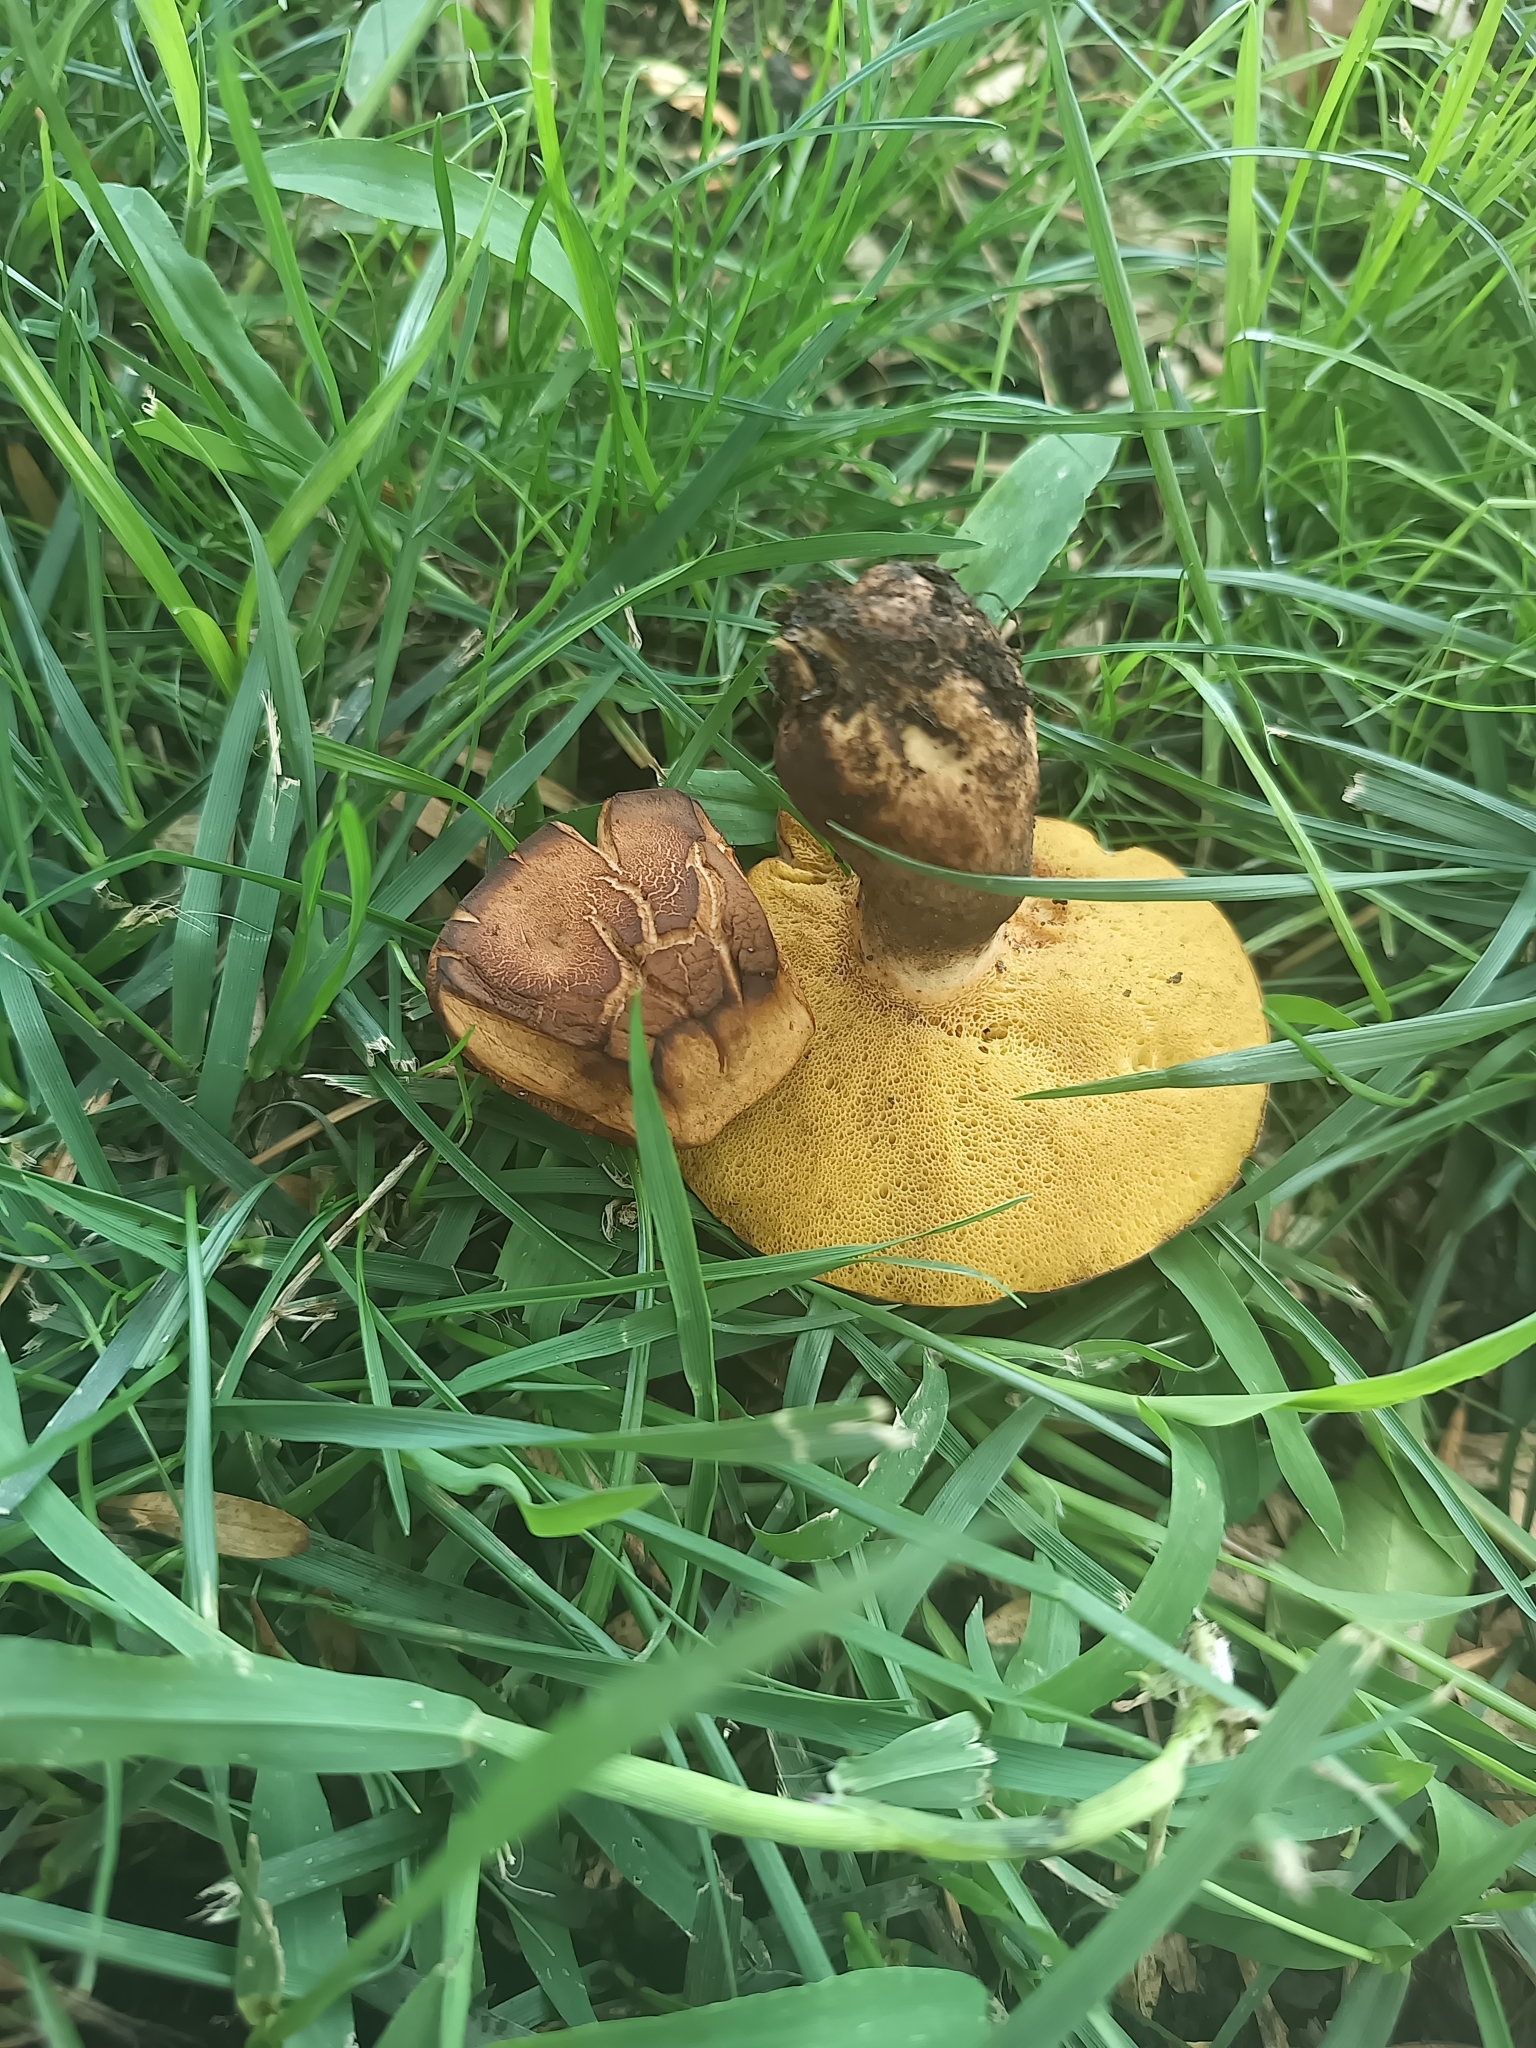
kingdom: Fungi
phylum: Basidiomycota
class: Agaricomycetes
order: Boletales
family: Boletinellaceae
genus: Phlebopus
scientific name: Phlebopus beniensis
